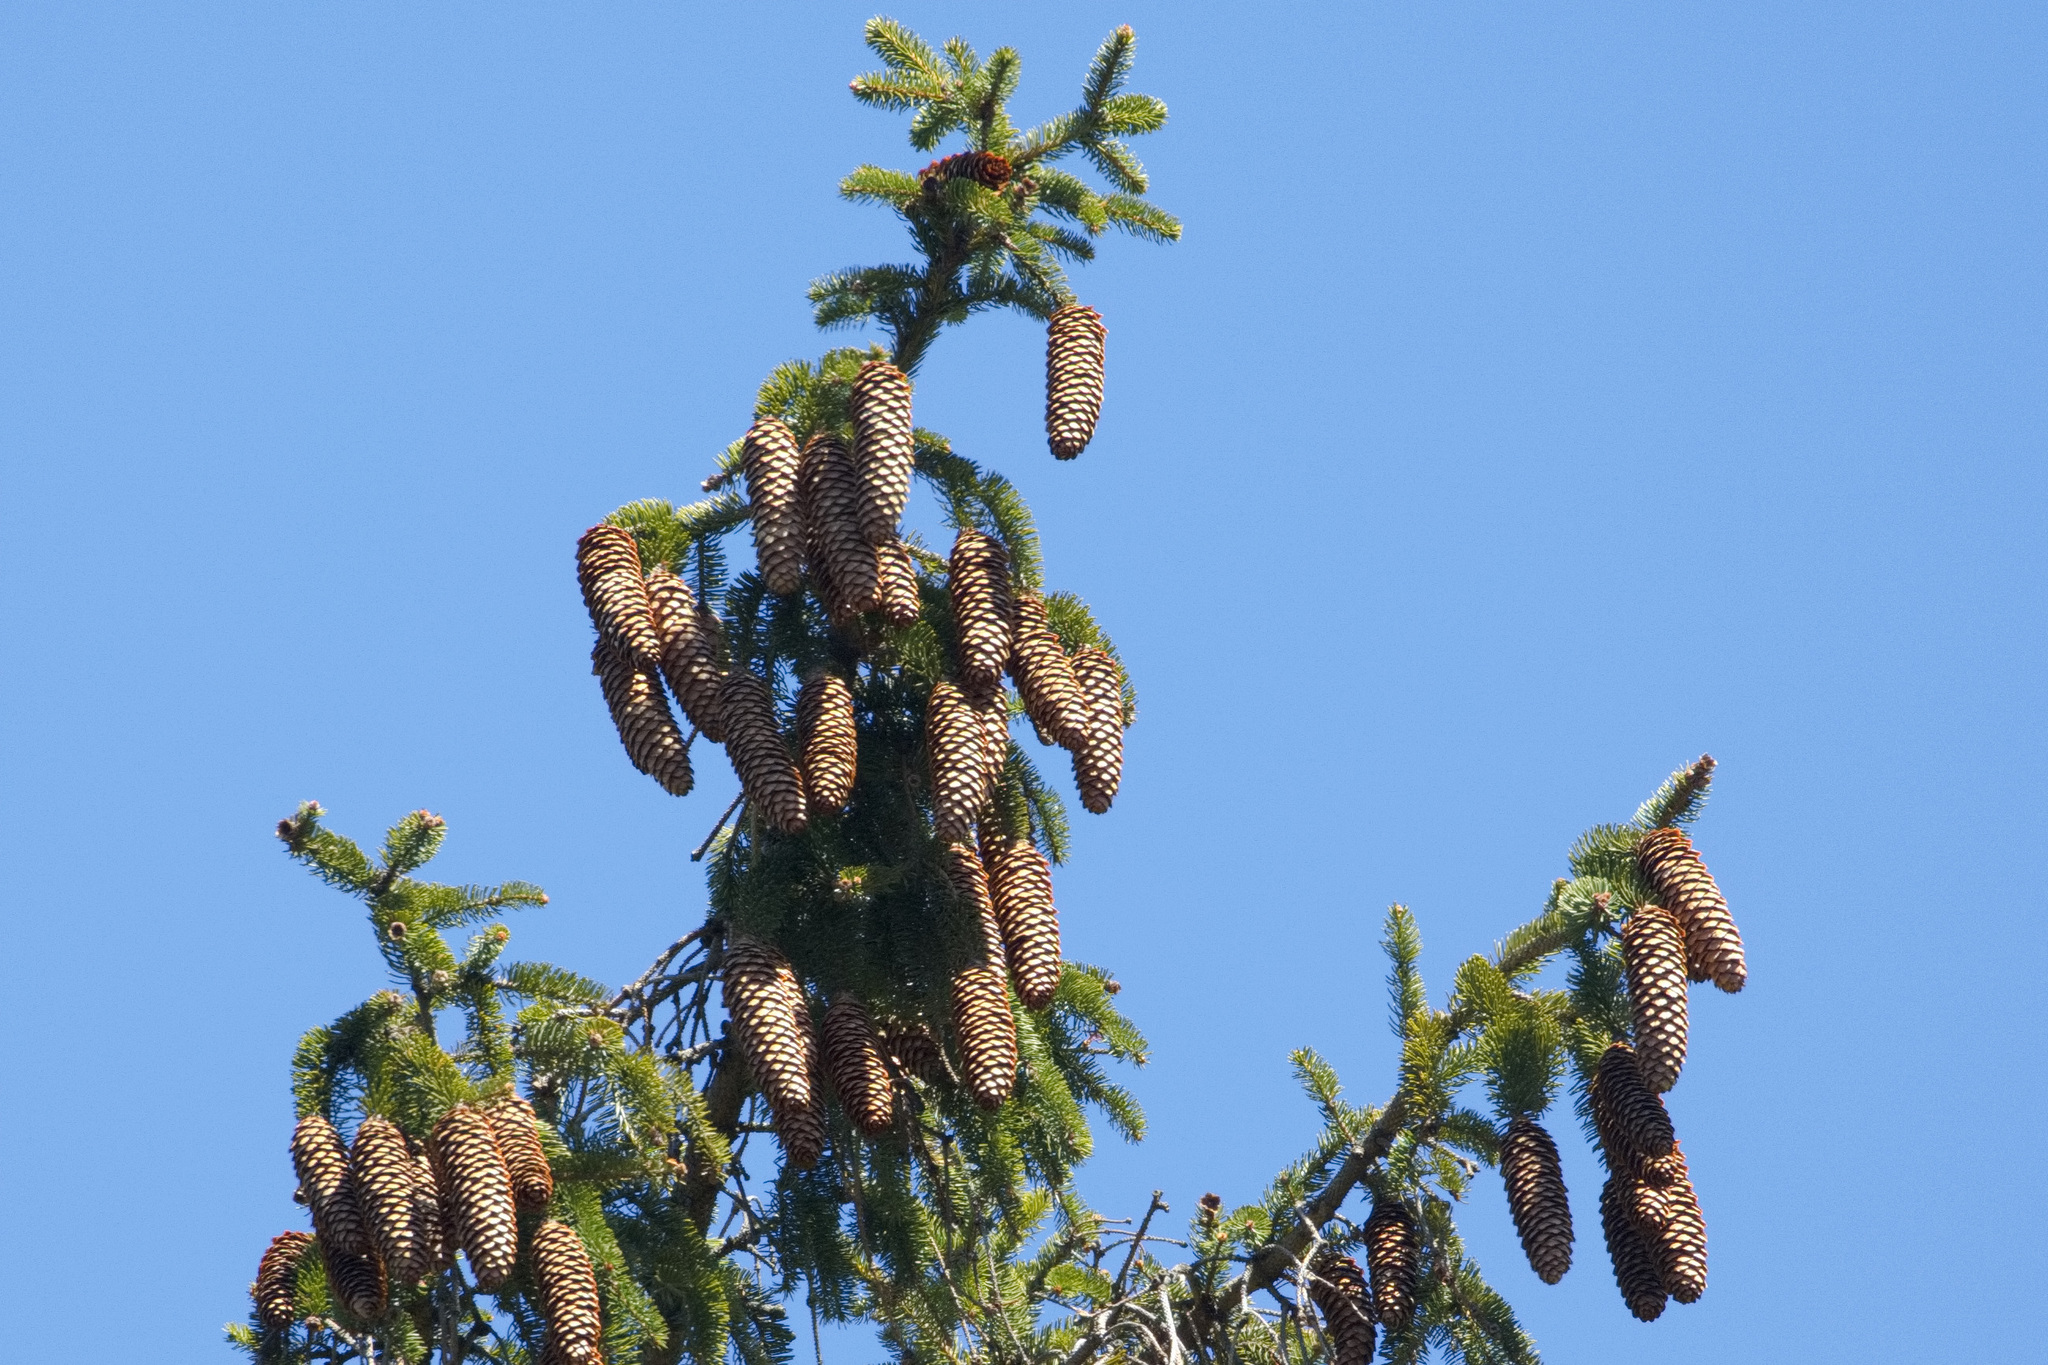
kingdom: Plantae
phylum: Tracheophyta
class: Pinopsida
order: Pinales
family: Pinaceae
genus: Picea
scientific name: Picea abies
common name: Norway spruce
